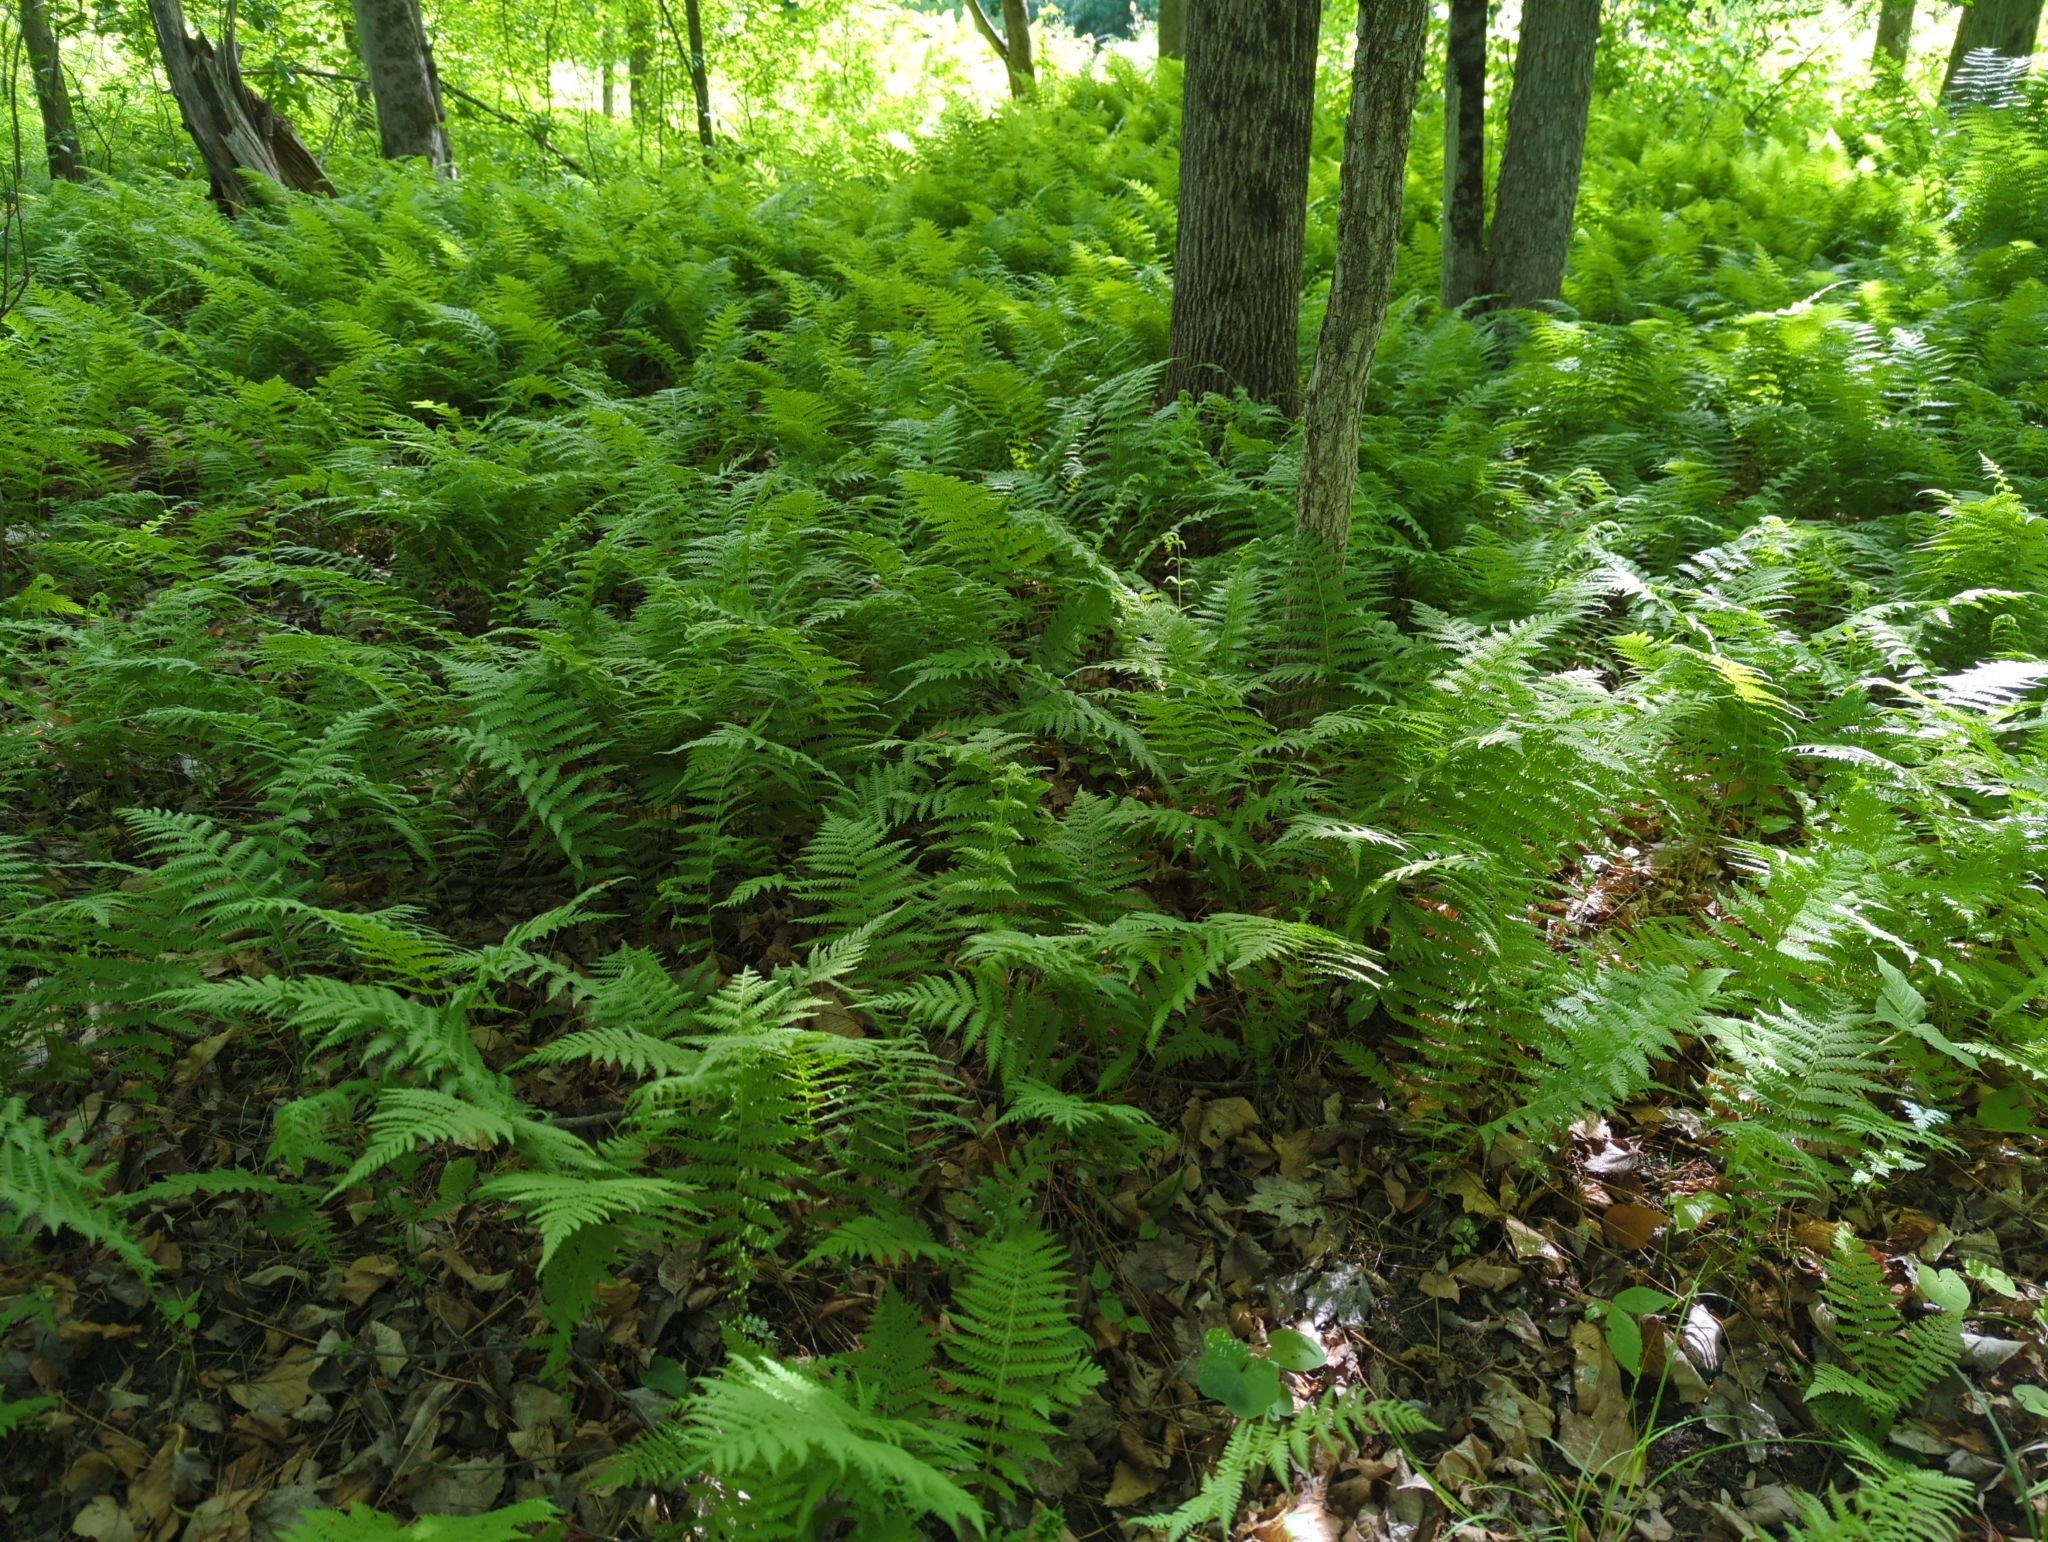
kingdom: Plantae
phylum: Tracheophyta
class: Polypodiopsida
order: Polypodiales
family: Thelypteridaceae
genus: Amauropelta
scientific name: Amauropelta noveboracensis
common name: New york fern
